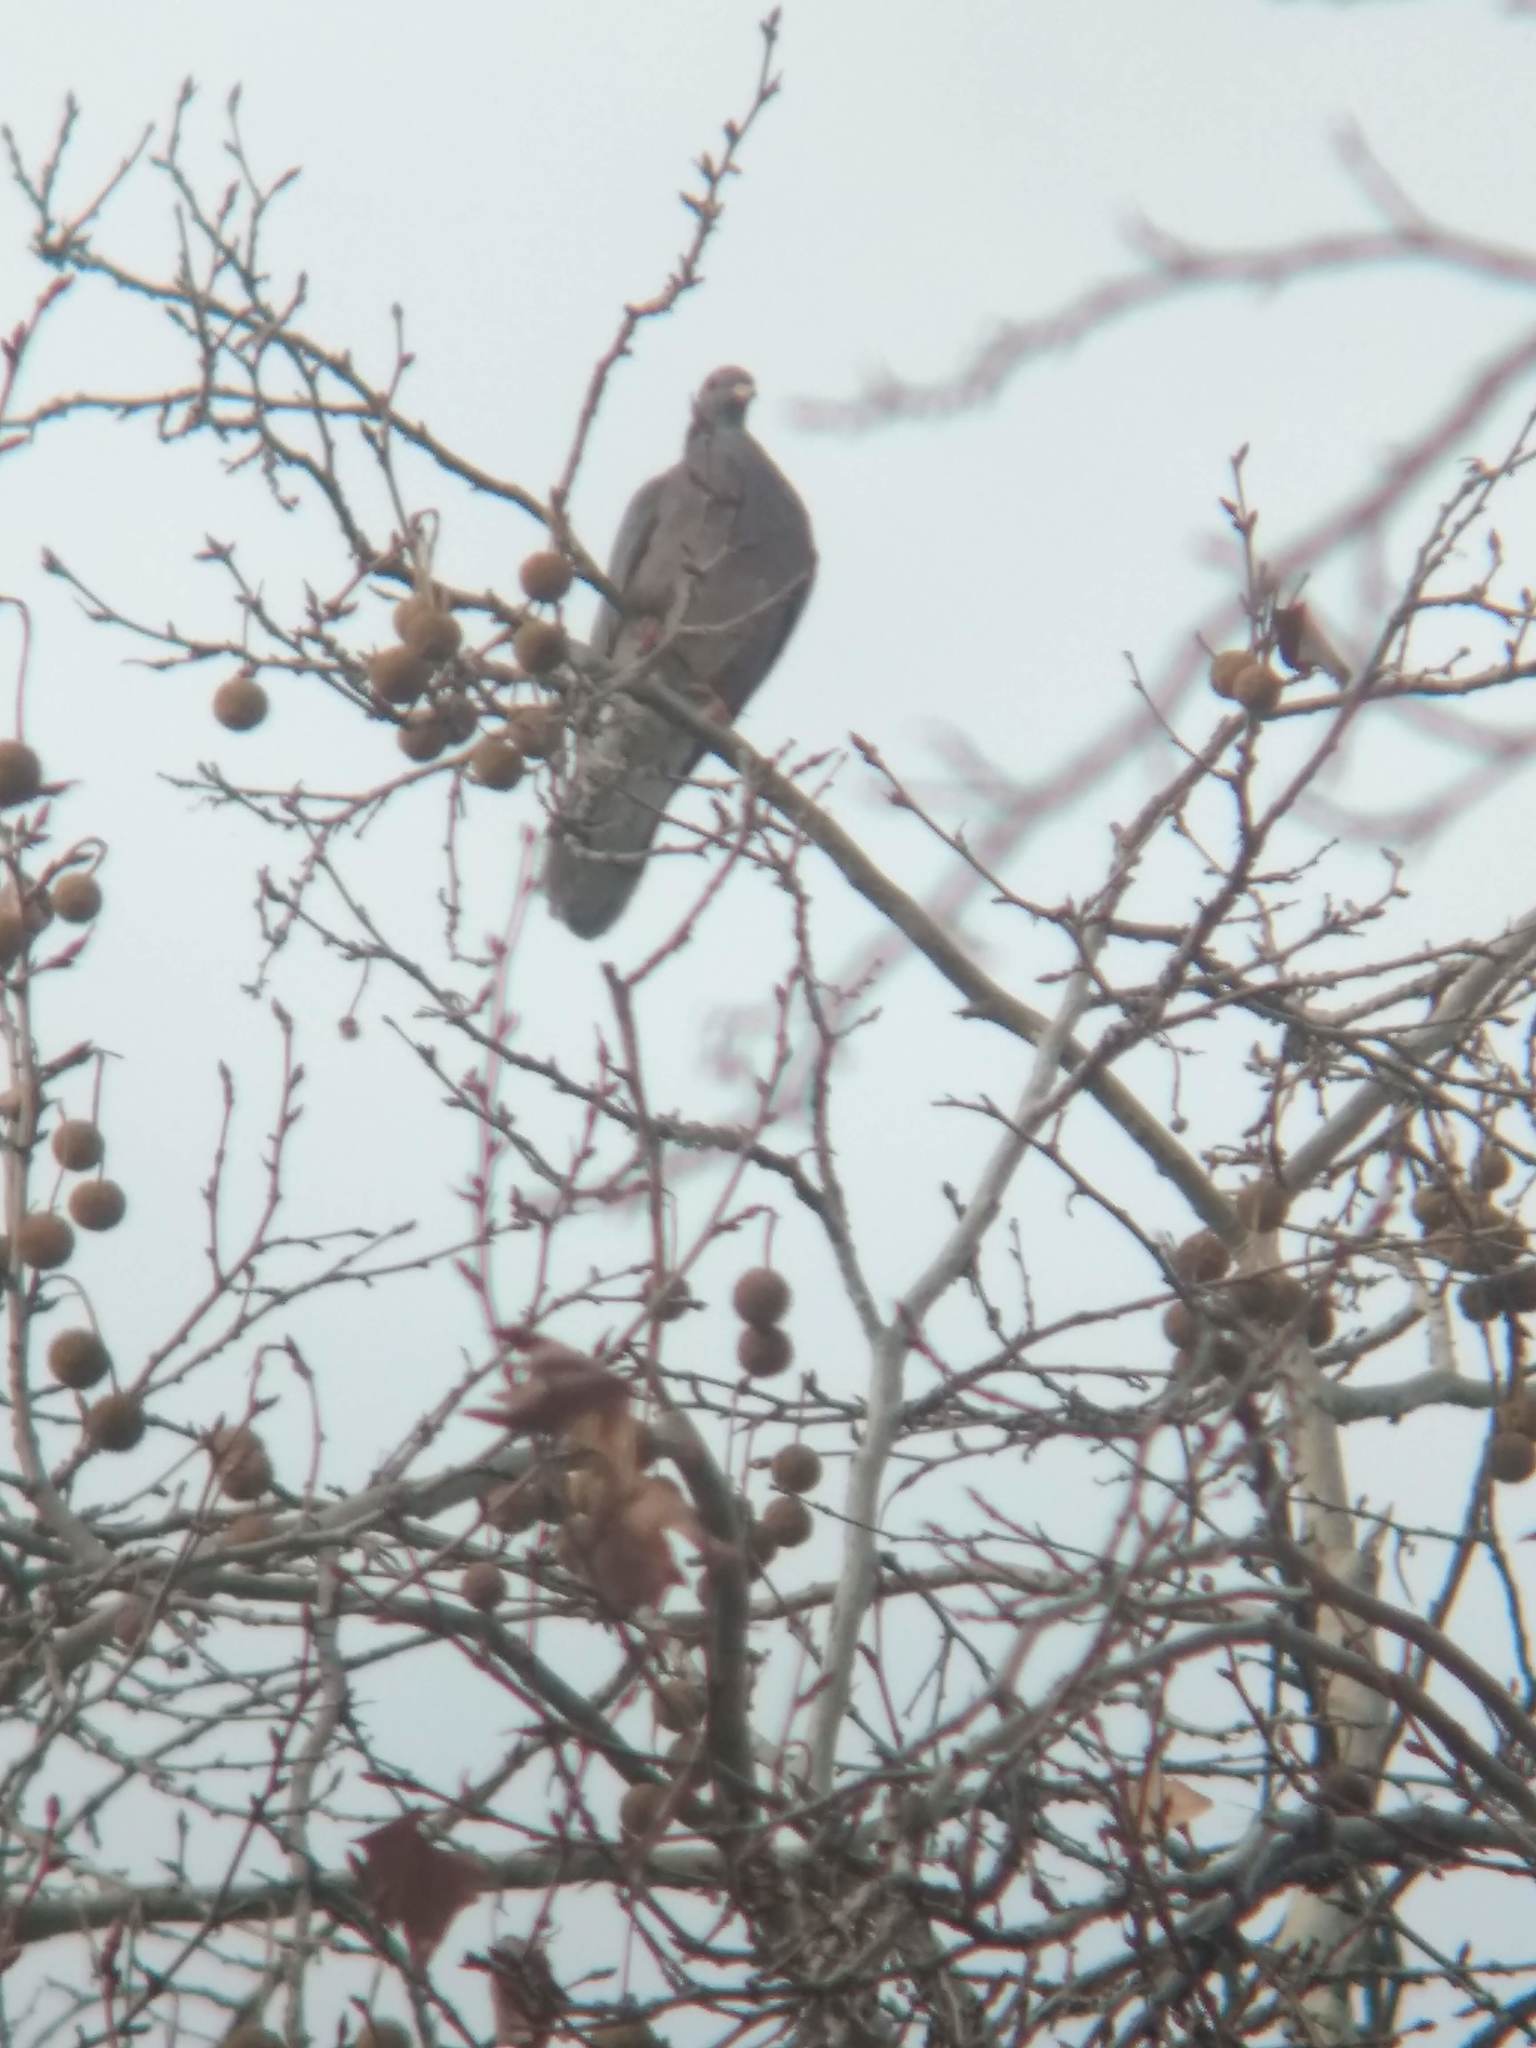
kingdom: Animalia
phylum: Chordata
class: Aves
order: Columbiformes
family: Columbidae
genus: Patagioenas
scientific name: Patagioenas fasciata
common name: Band-tailed pigeon
